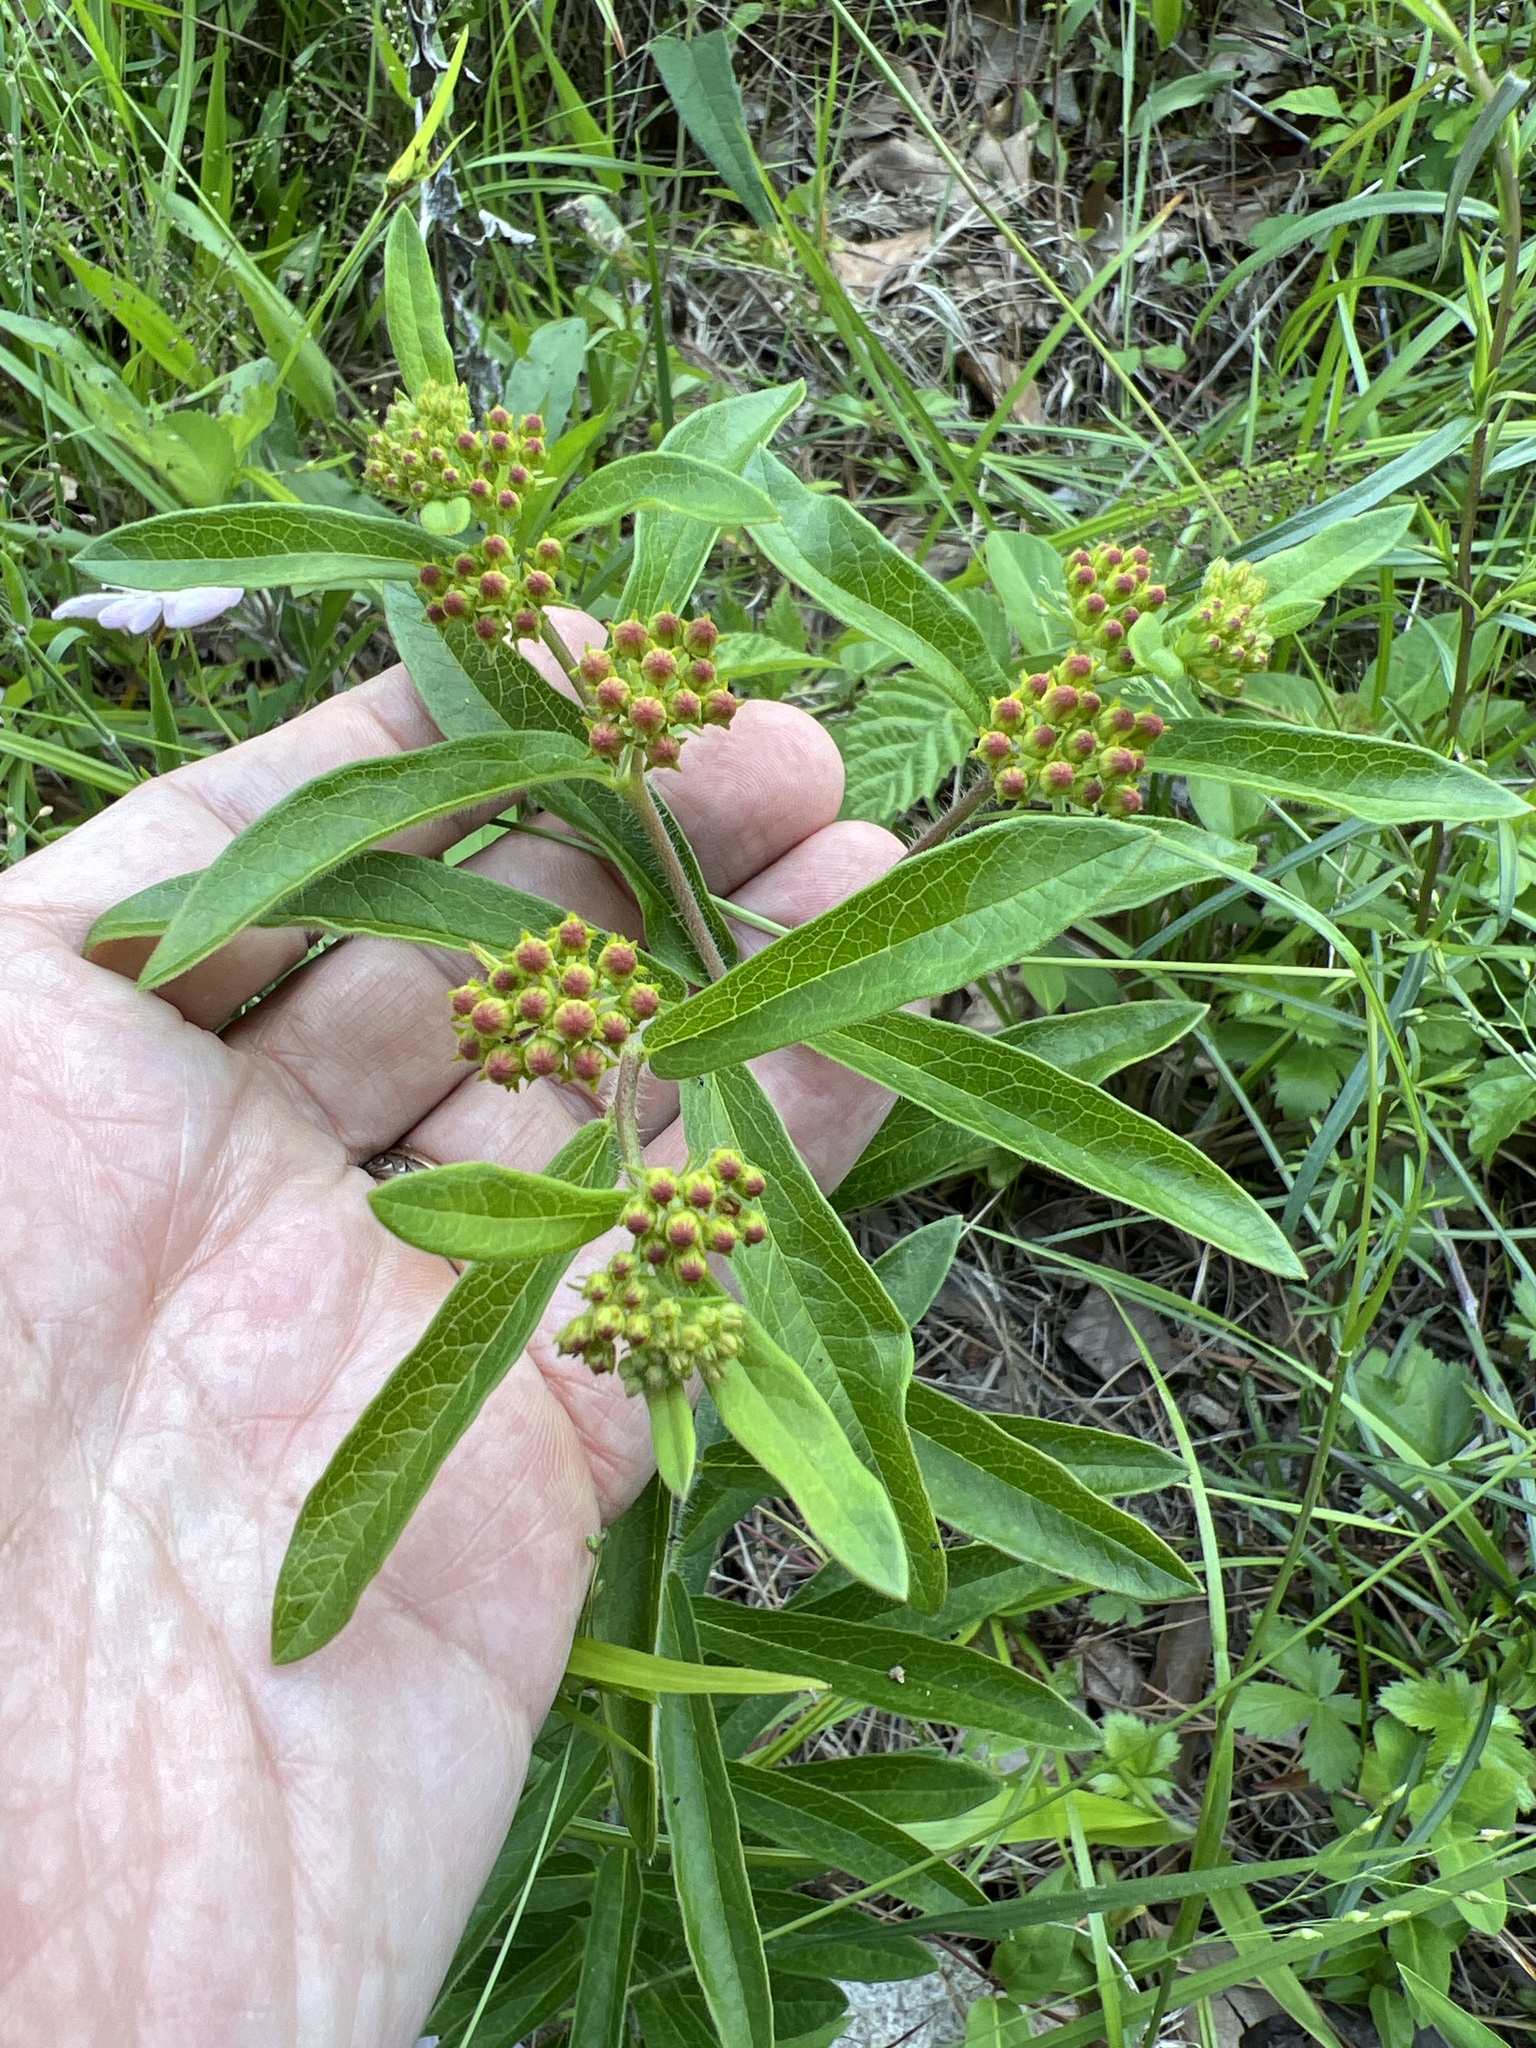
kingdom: Plantae
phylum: Tracheophyta
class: Magnoliopsida
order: Gentianales
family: Apocynaceae
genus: Asclepias
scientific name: Asclepias tuberosa
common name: Butterfly milkweed
